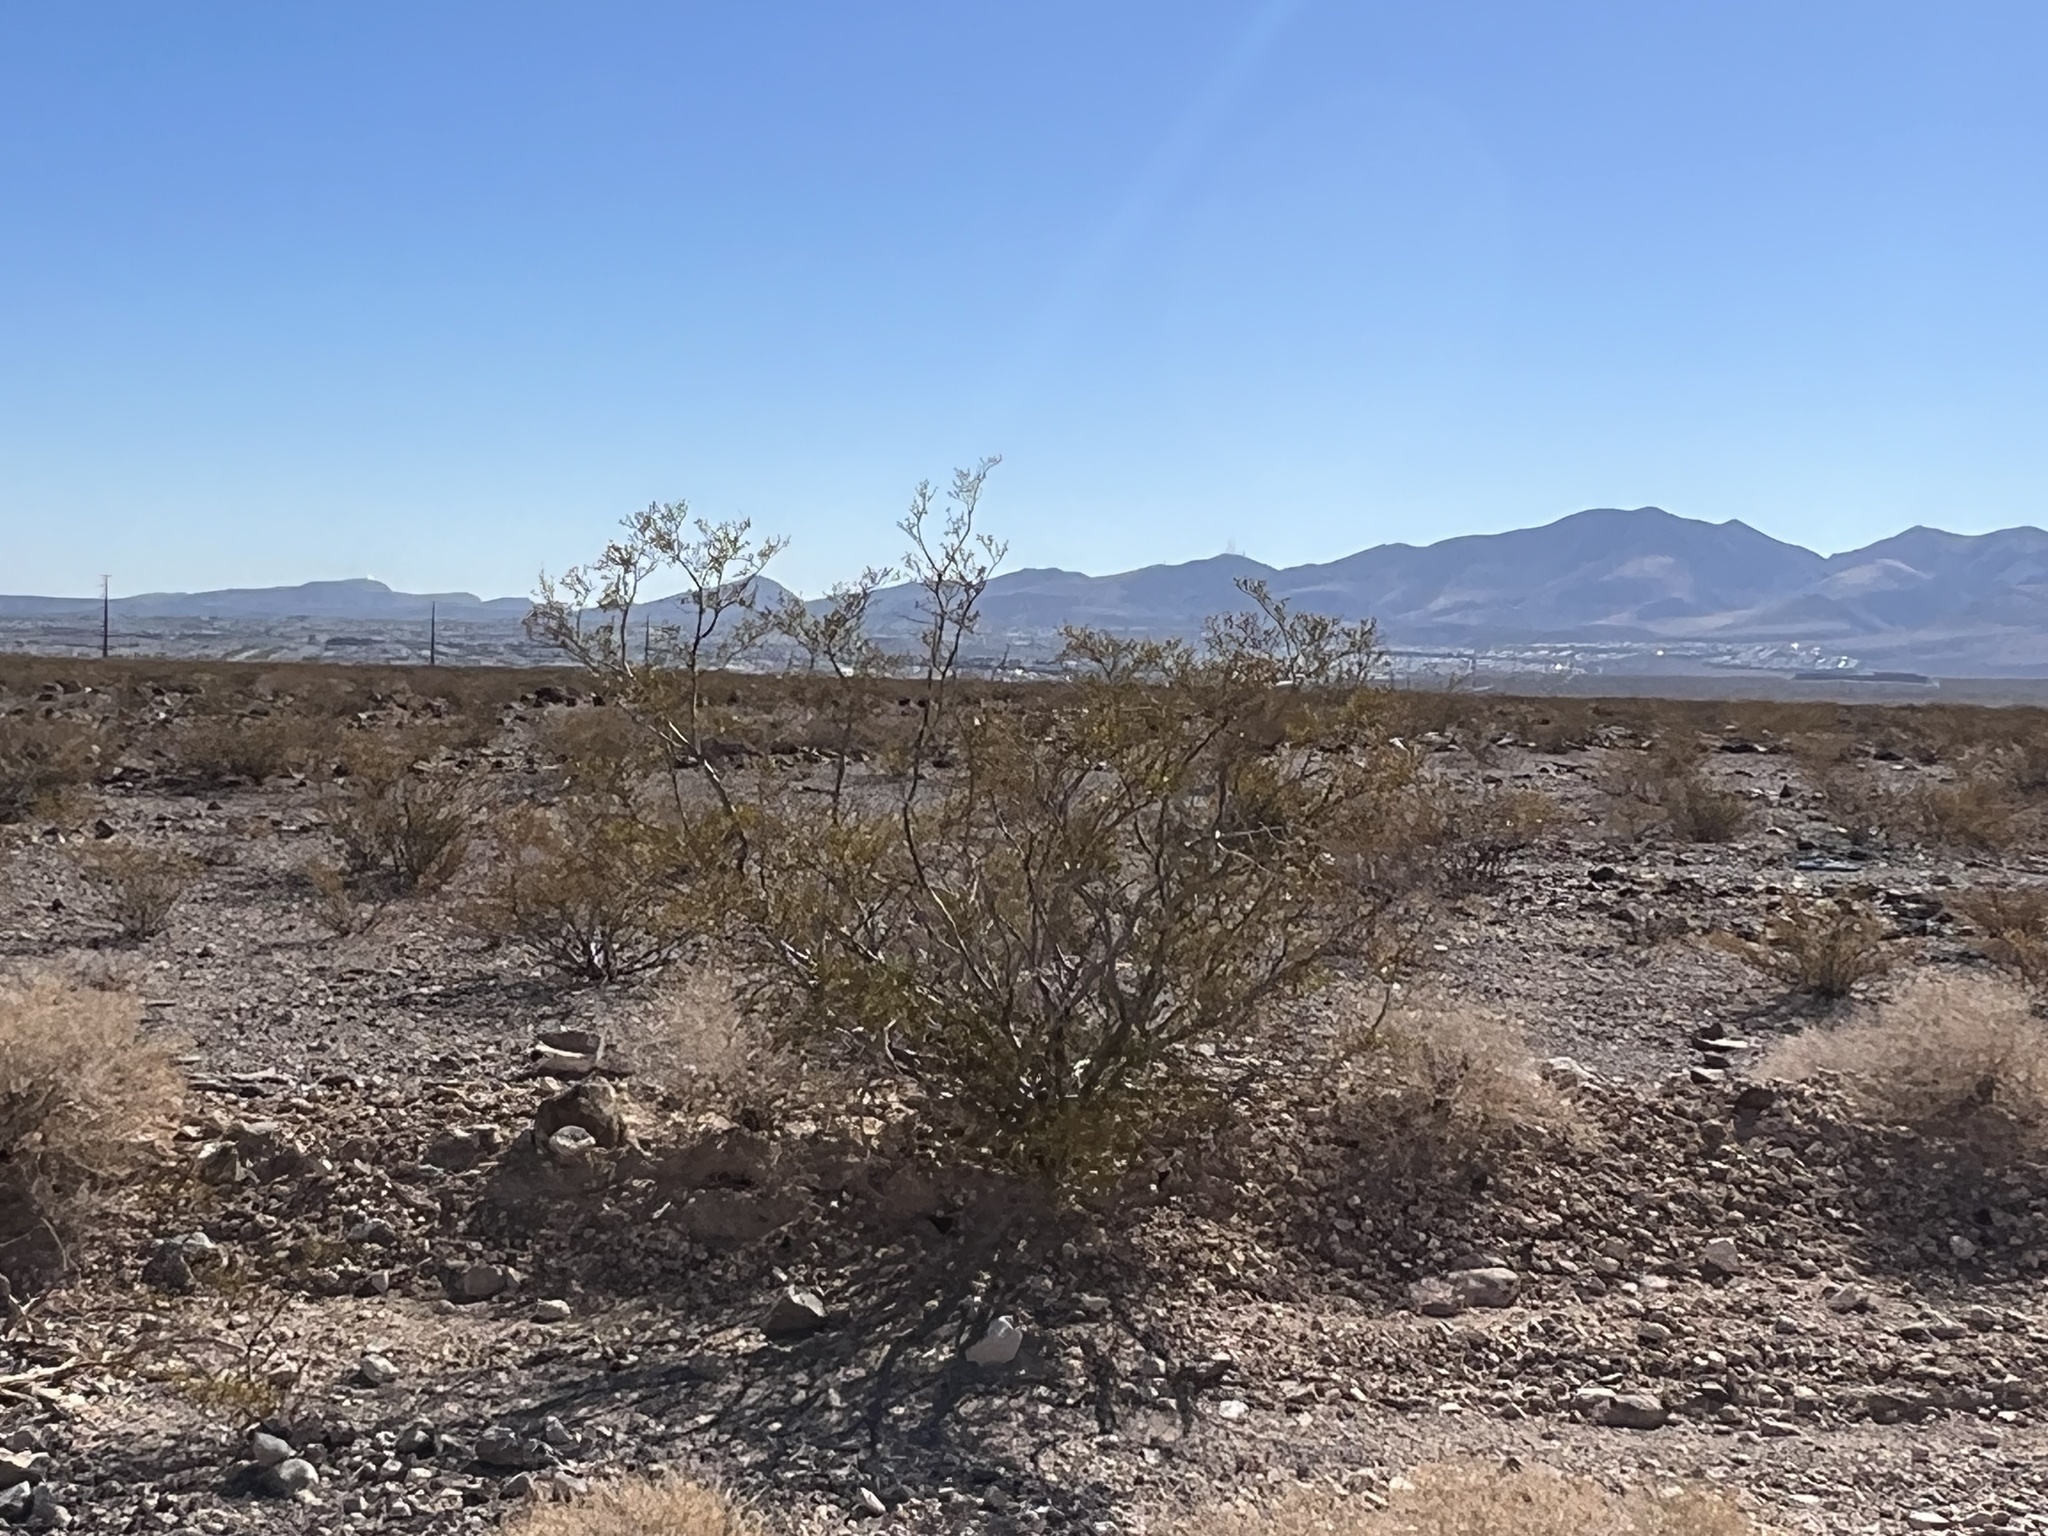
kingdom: Plantae
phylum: Tracheophyta
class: Magnoliopsida
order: Zygophyllales
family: Zygophyllaceae
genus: Larrea
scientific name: Larrea tridentata
